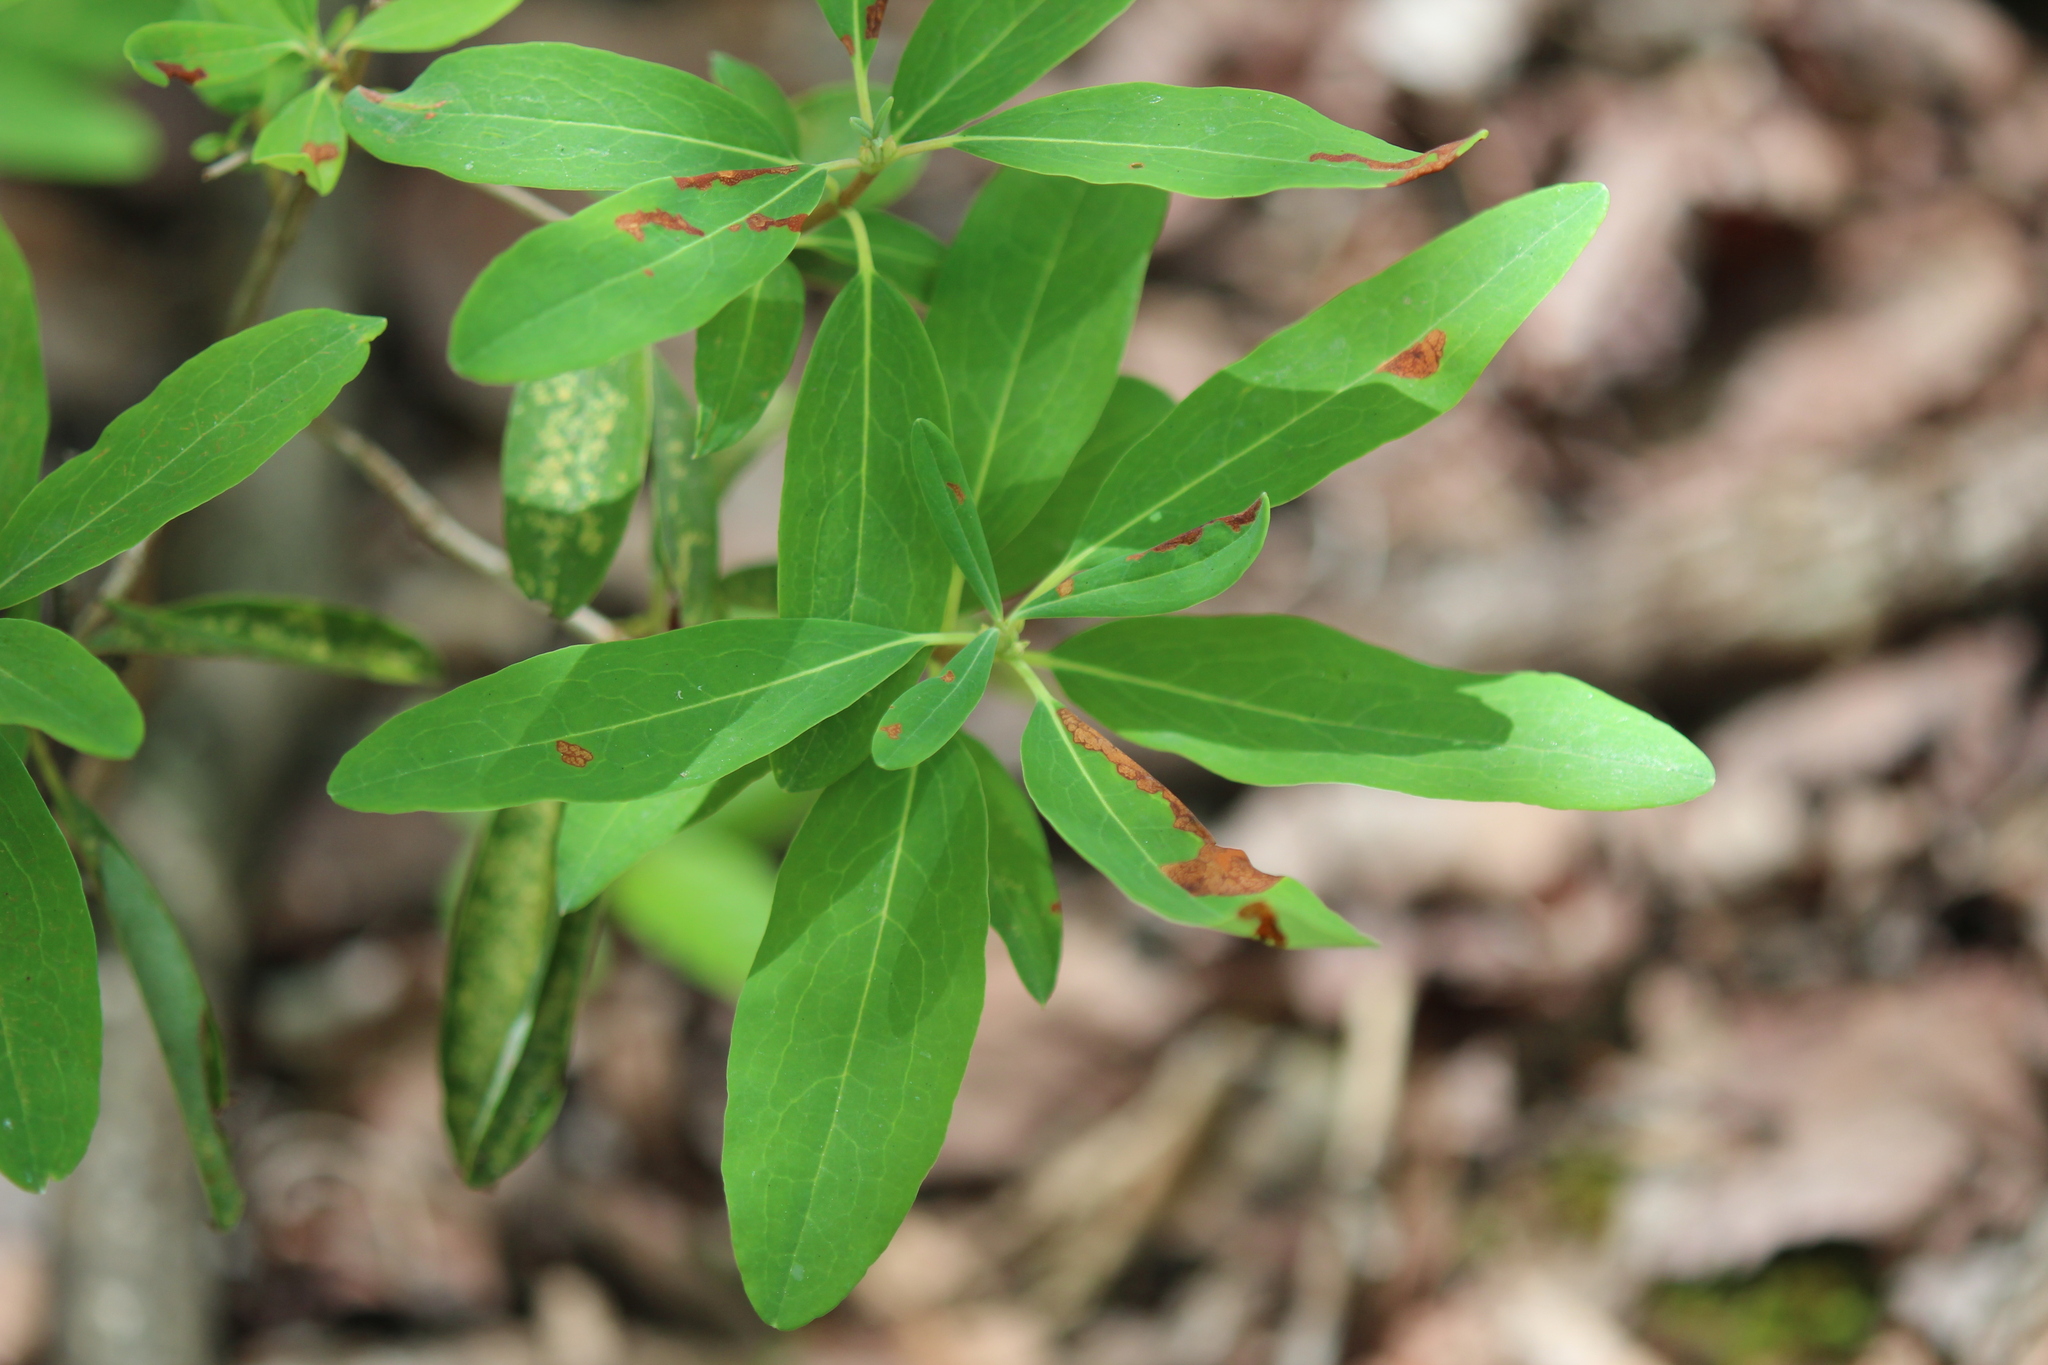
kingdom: Plantae
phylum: Tracheophyta
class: Magnoliopsida
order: Ericales
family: Ericaceae
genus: Kalmia
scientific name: Kalmia angustifolia
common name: Sheep-laurel
